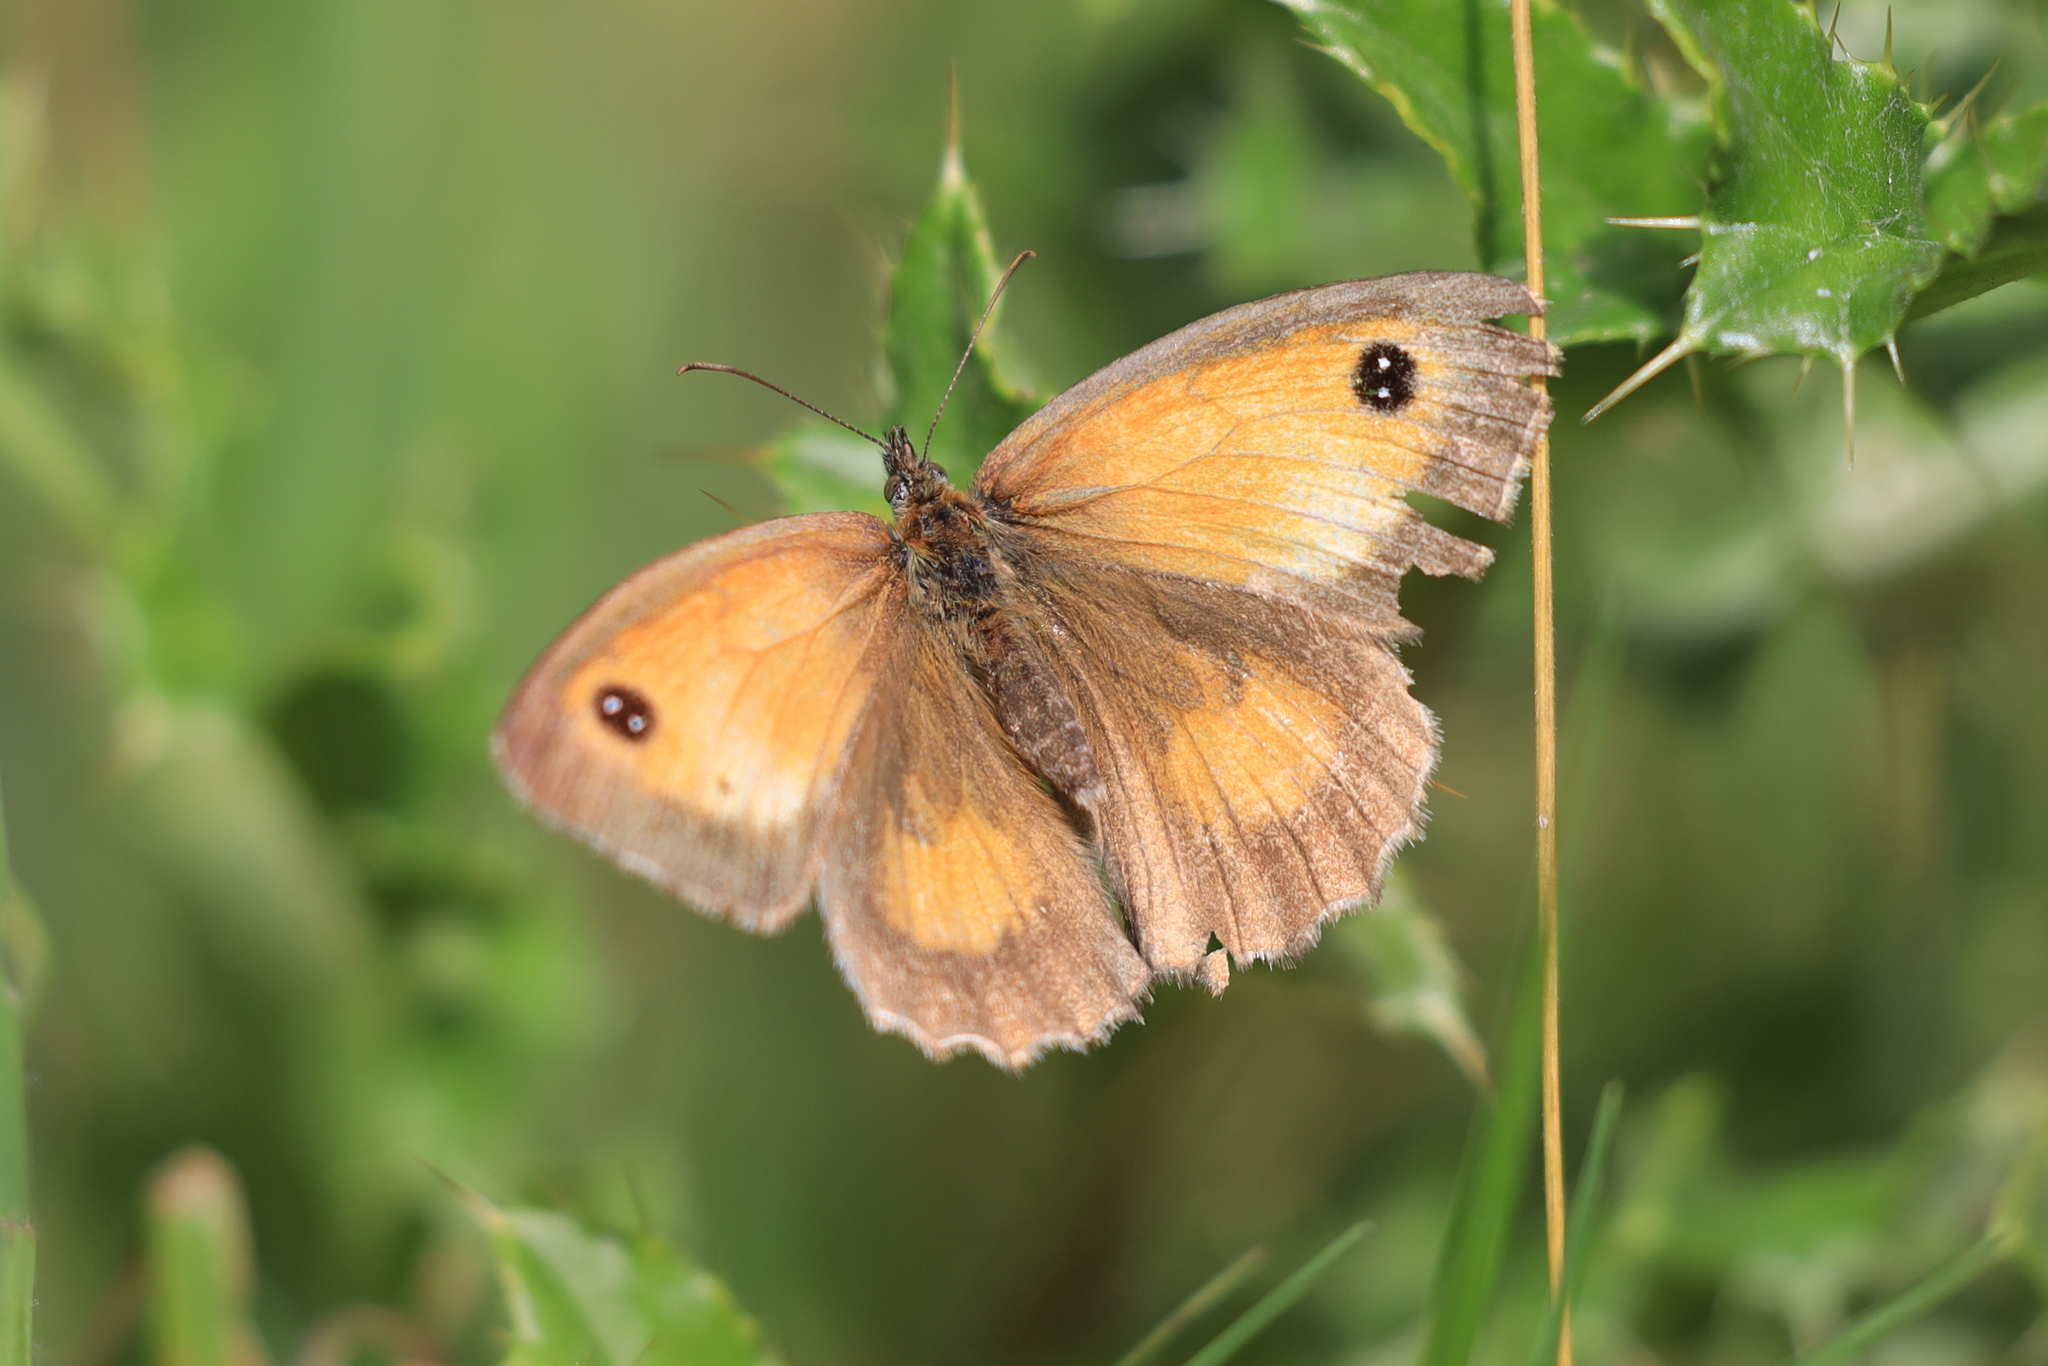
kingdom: Animalia
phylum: Arthropoda
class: Insecta
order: Lepidoptera
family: Nymphalidae
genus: Pyronia
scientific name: Pyronia tithonus
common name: Gatekeeper
